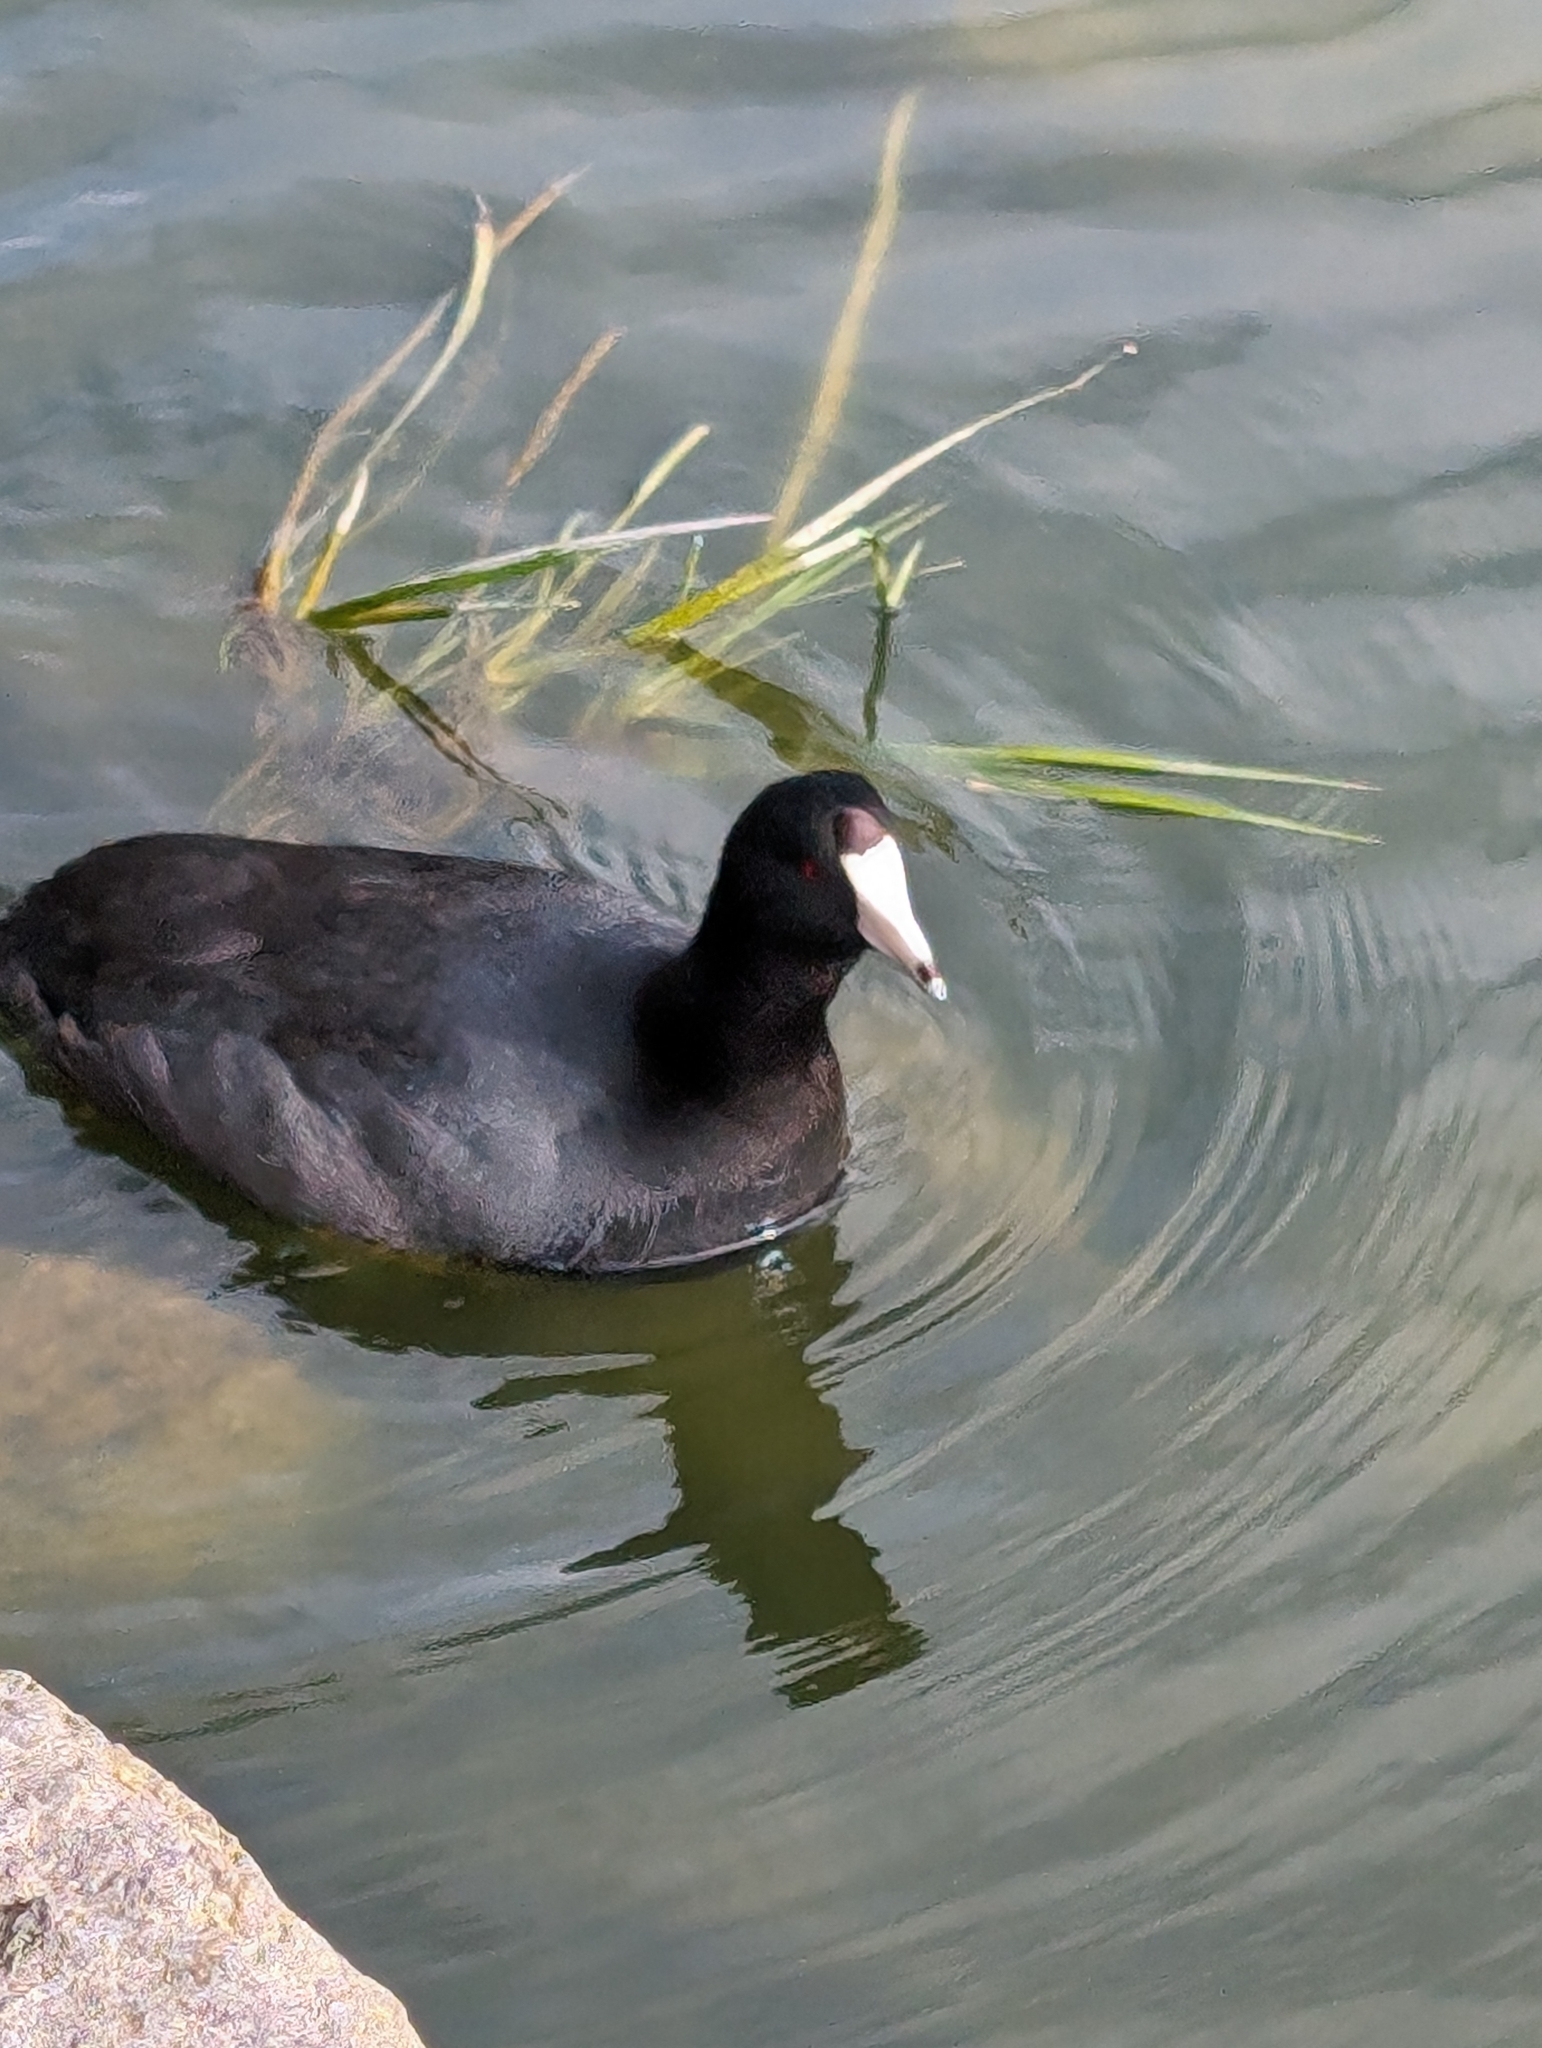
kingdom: Animalia
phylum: Chordata
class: Aves
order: Gruiformes
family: Rallidae
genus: Fulica
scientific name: Fulica americana
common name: American coot
